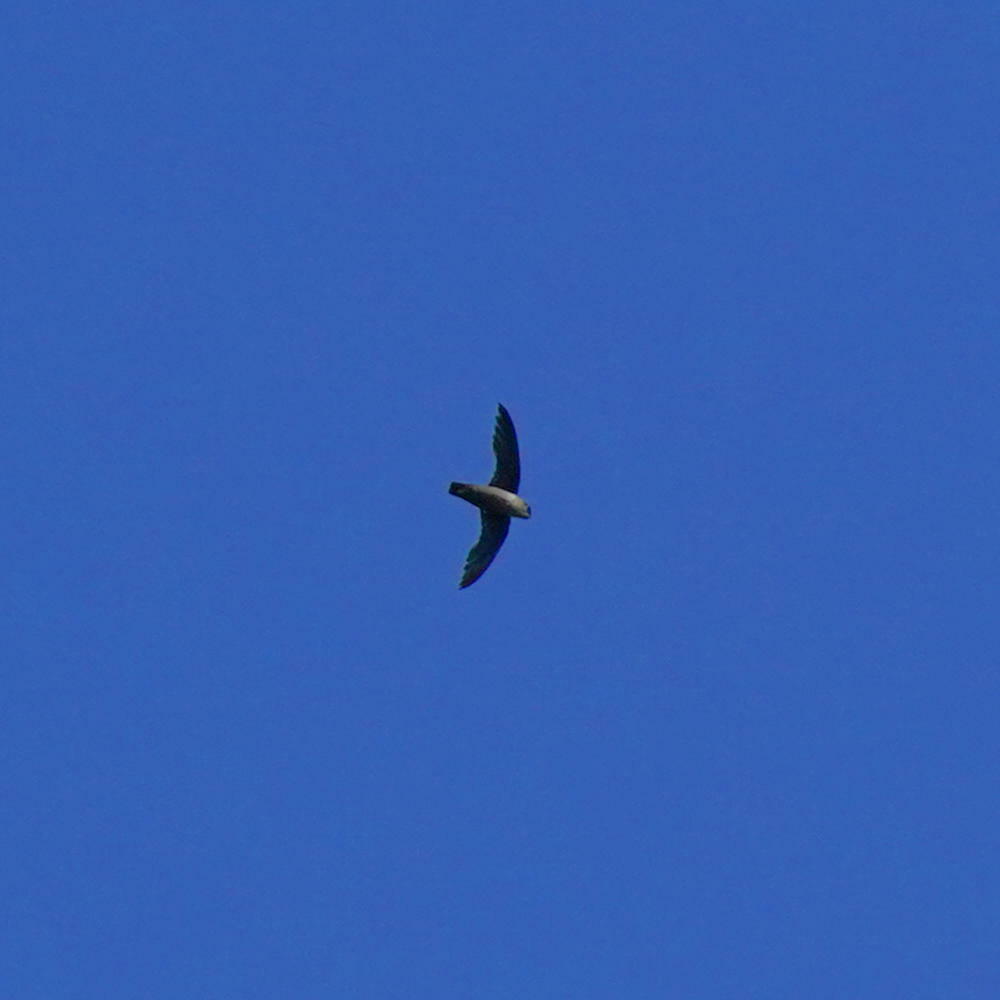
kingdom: Animalia
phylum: Chordata
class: Aves
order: Apodiformes
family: Apodidae
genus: Chaetura
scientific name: Chaetura vauxi
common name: Vaux's swift
